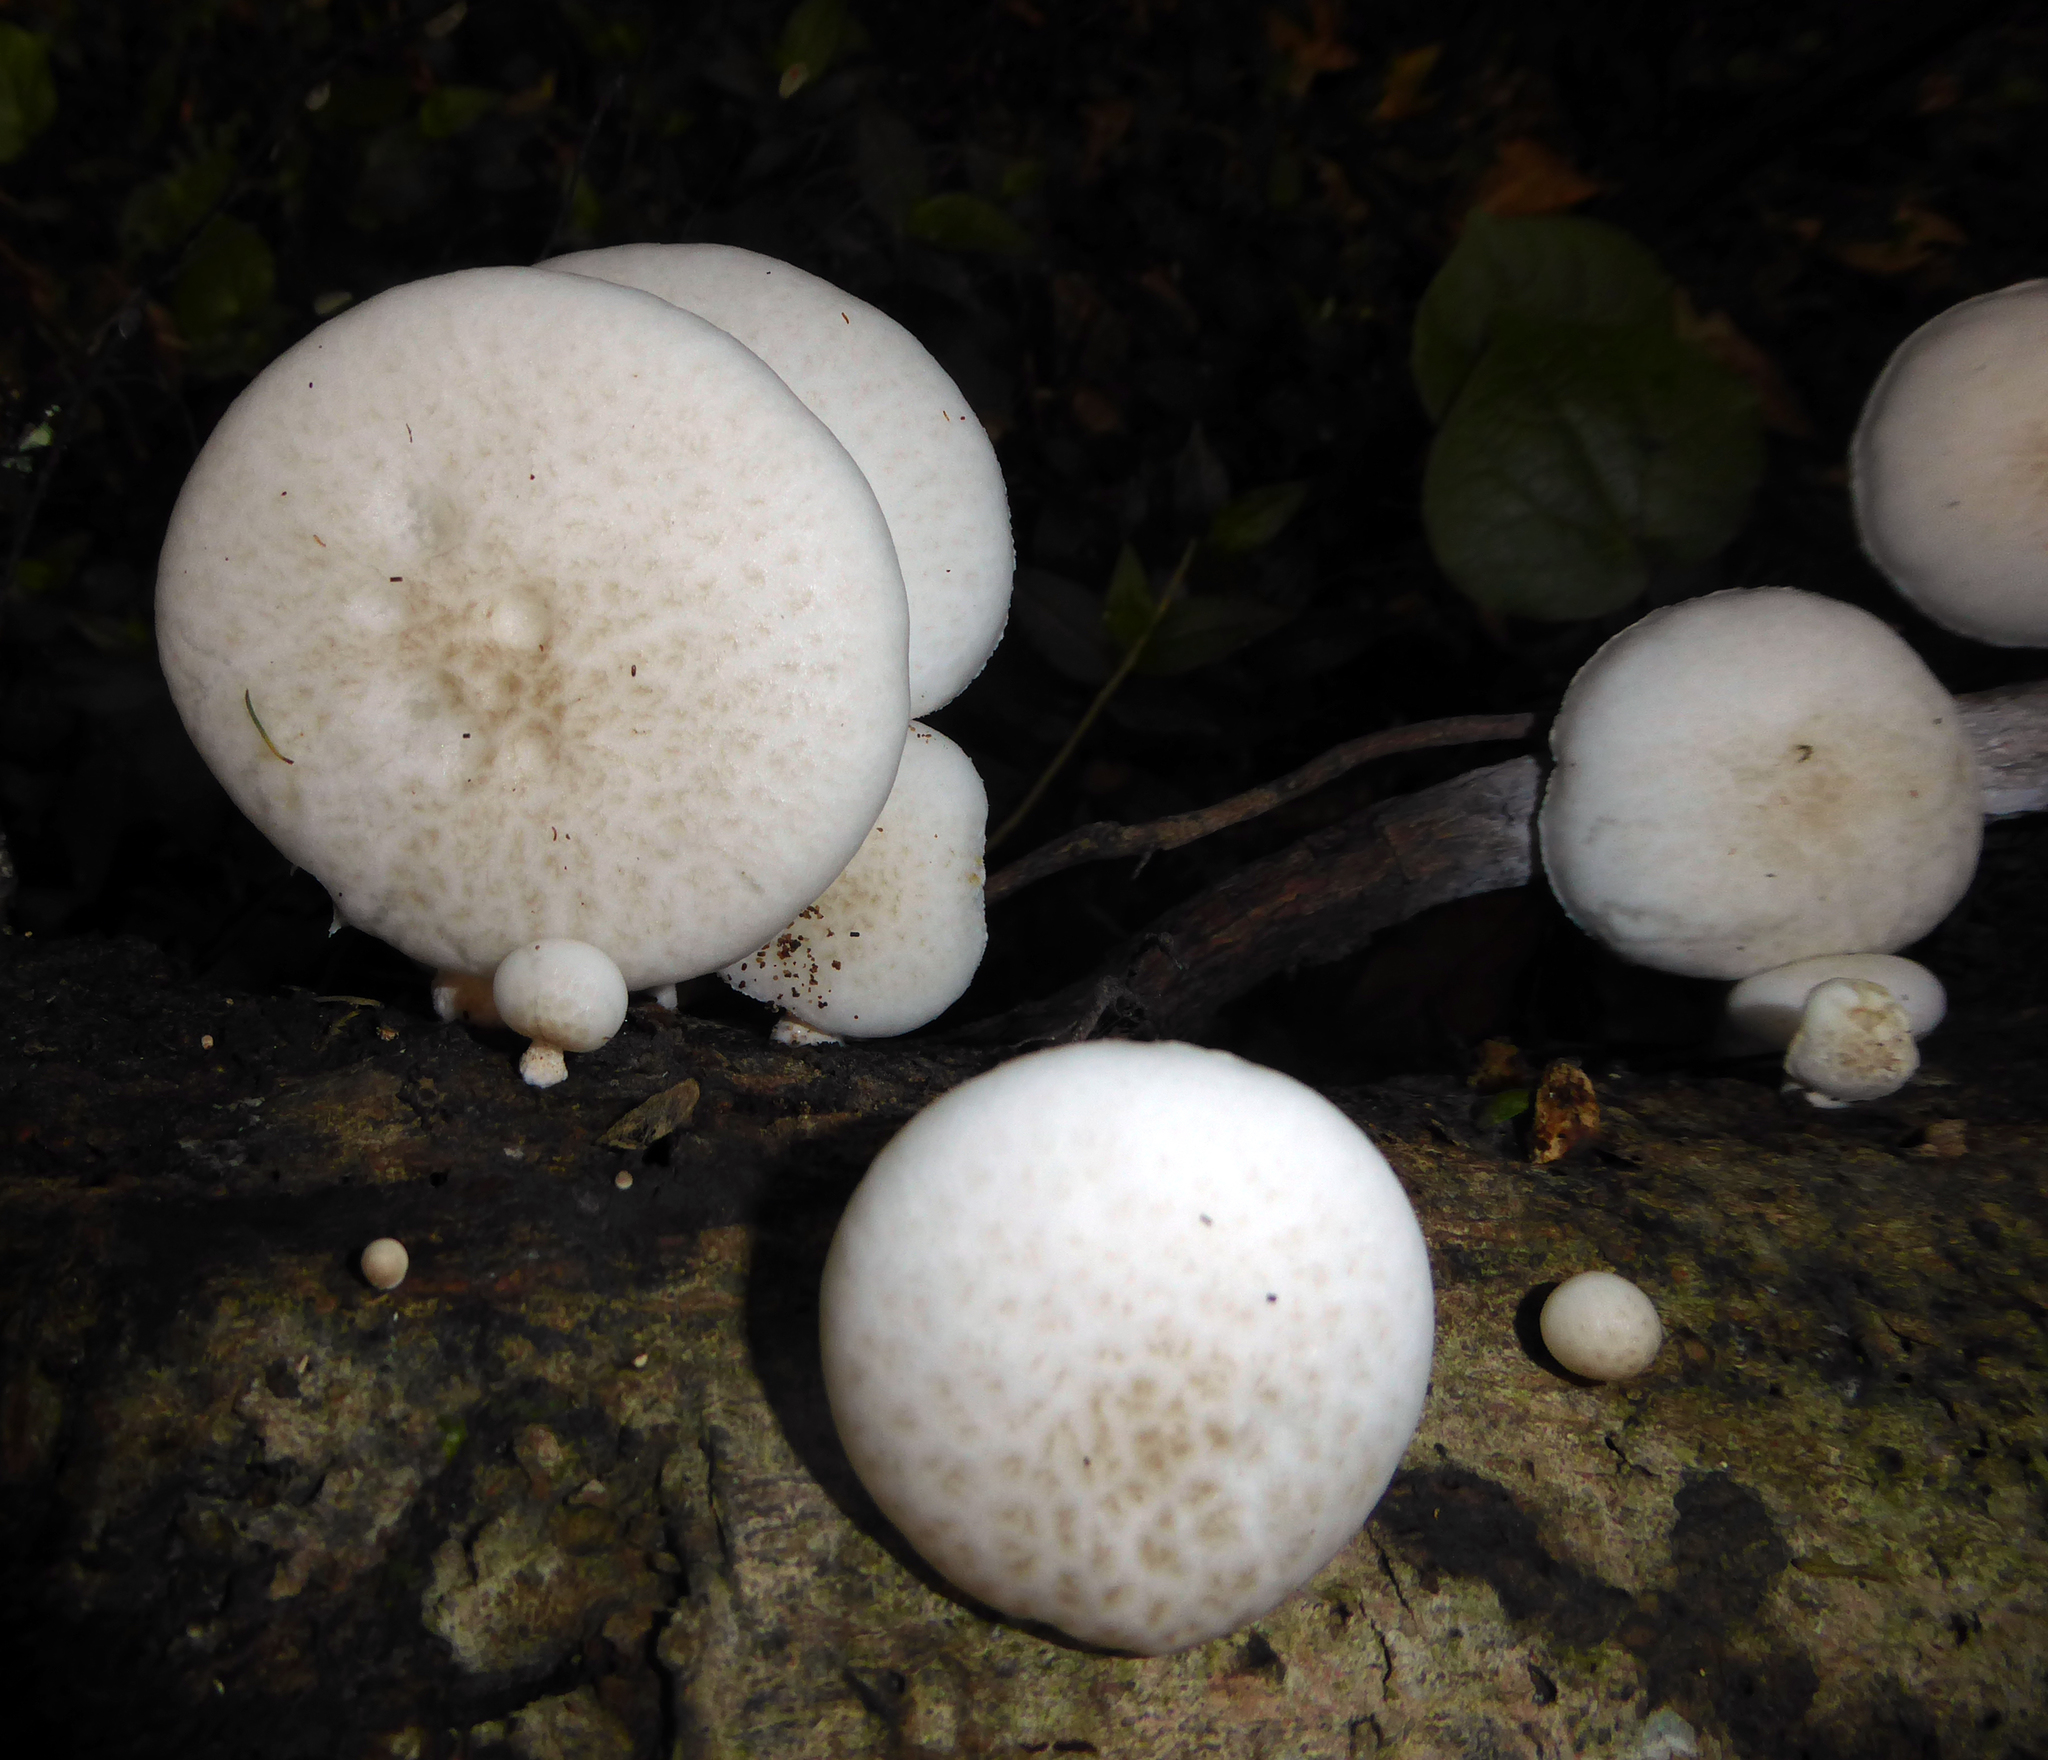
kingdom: Fungi
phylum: Basidiomycota
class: Agaricomycetes
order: Agaricales
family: Physalacriaceae
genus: Oudemansiella
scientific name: Oudemansiella australis
